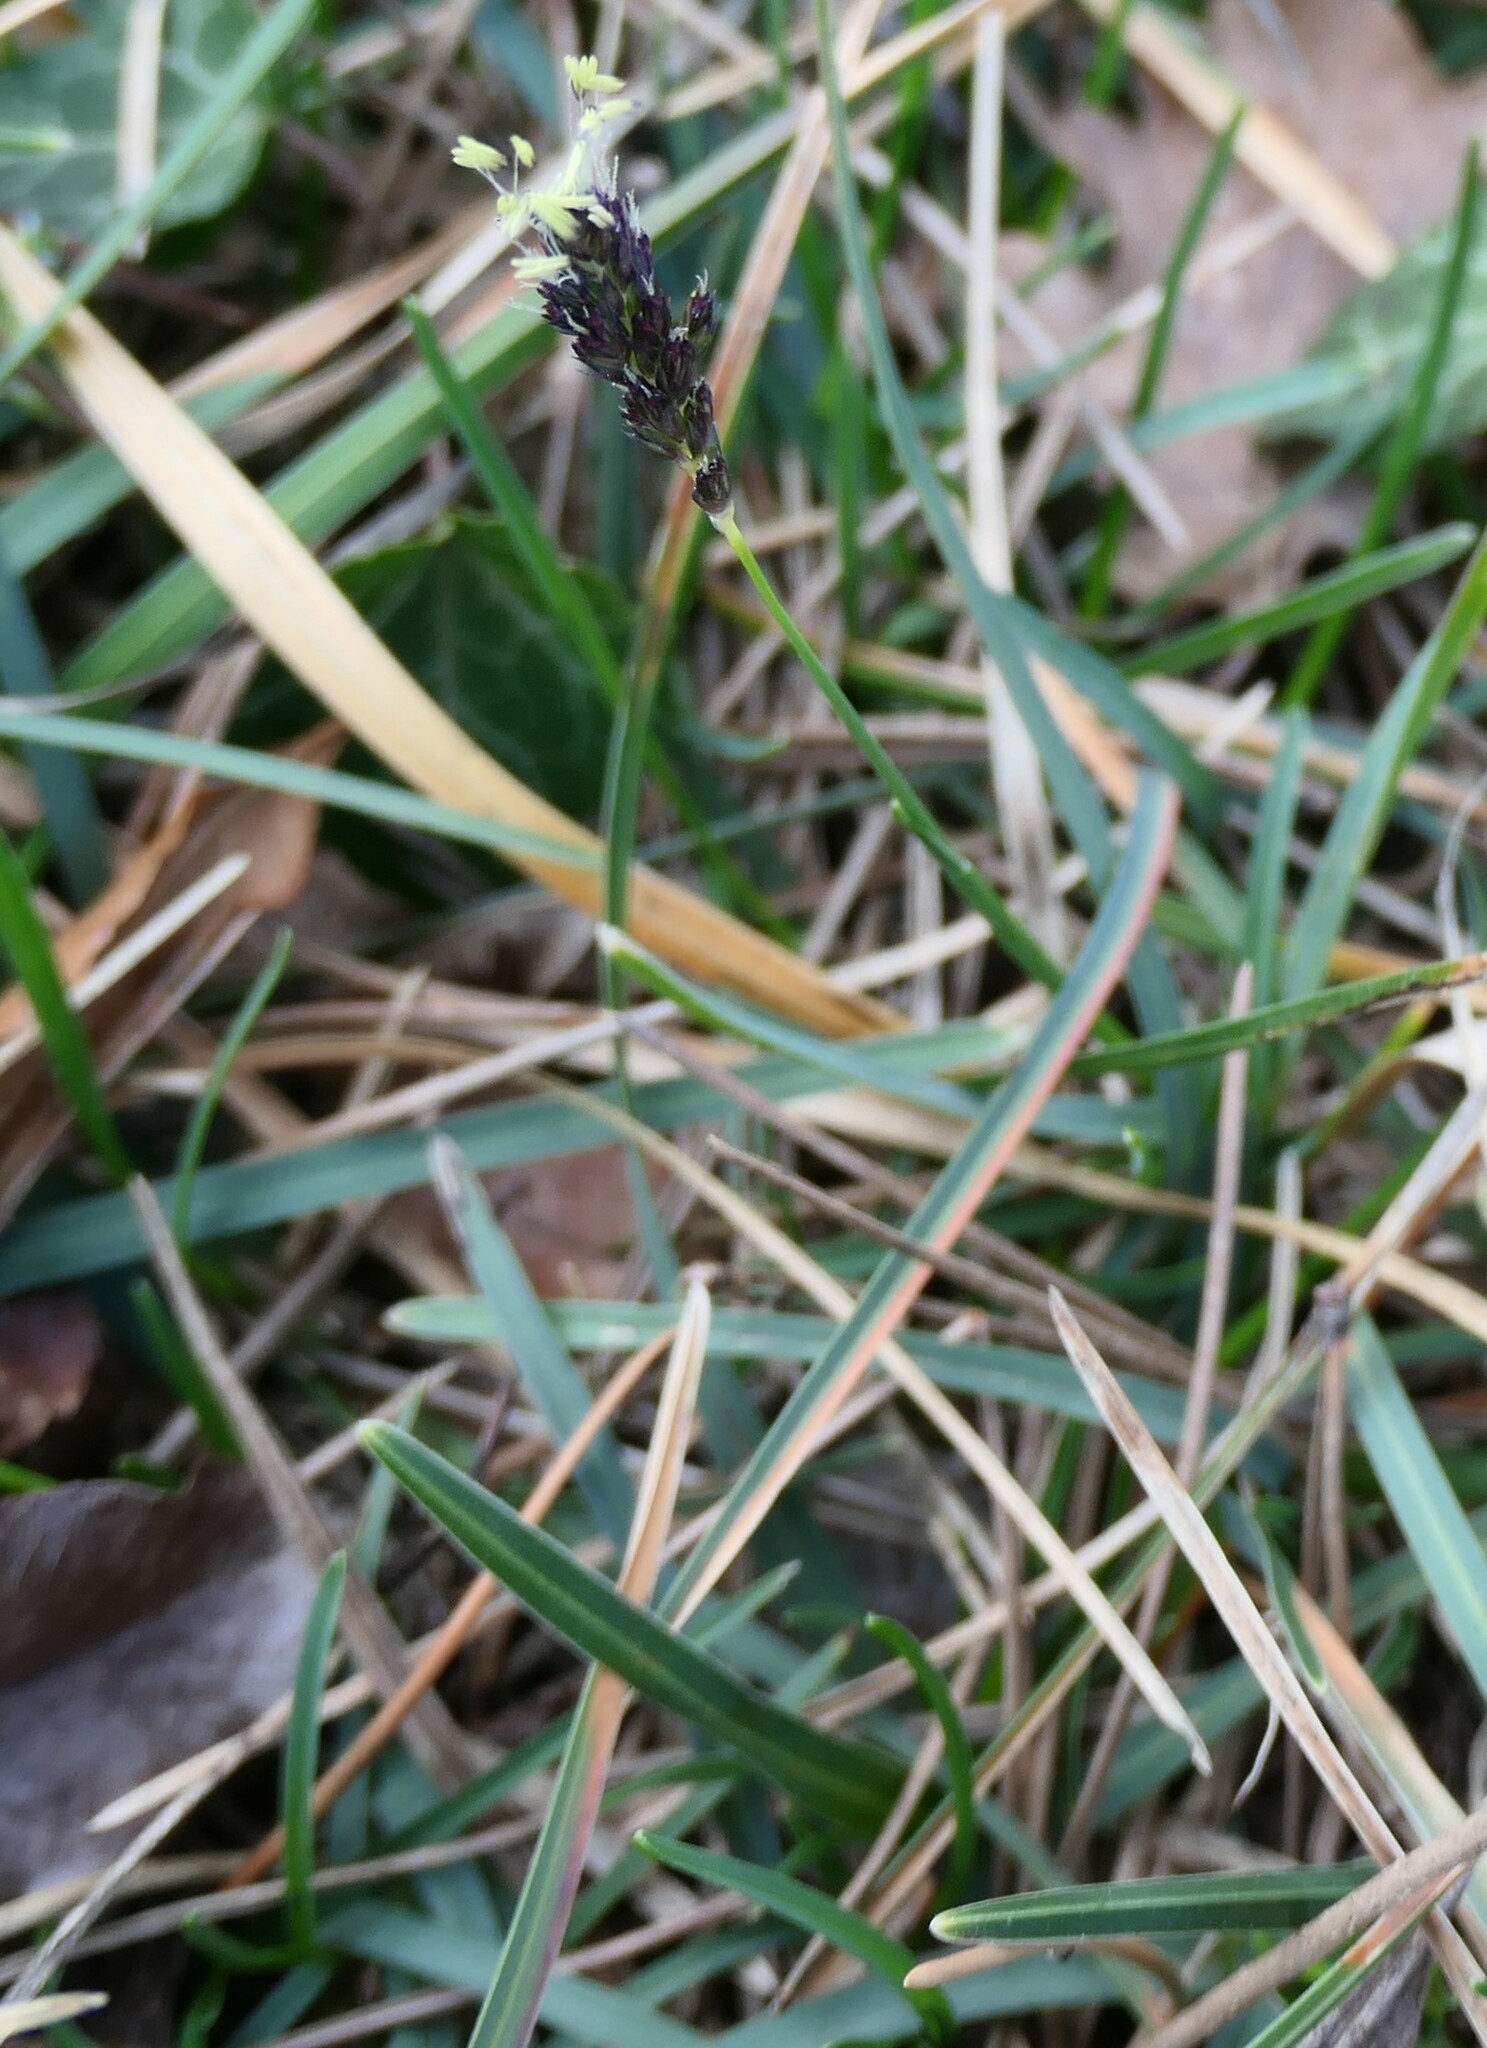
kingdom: Plantae
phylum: Tracheophyta
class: Liliopsida
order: Poales
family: Poaceae
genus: Sesleria
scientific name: Sesleria caerulea
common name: Blue moor-grass
